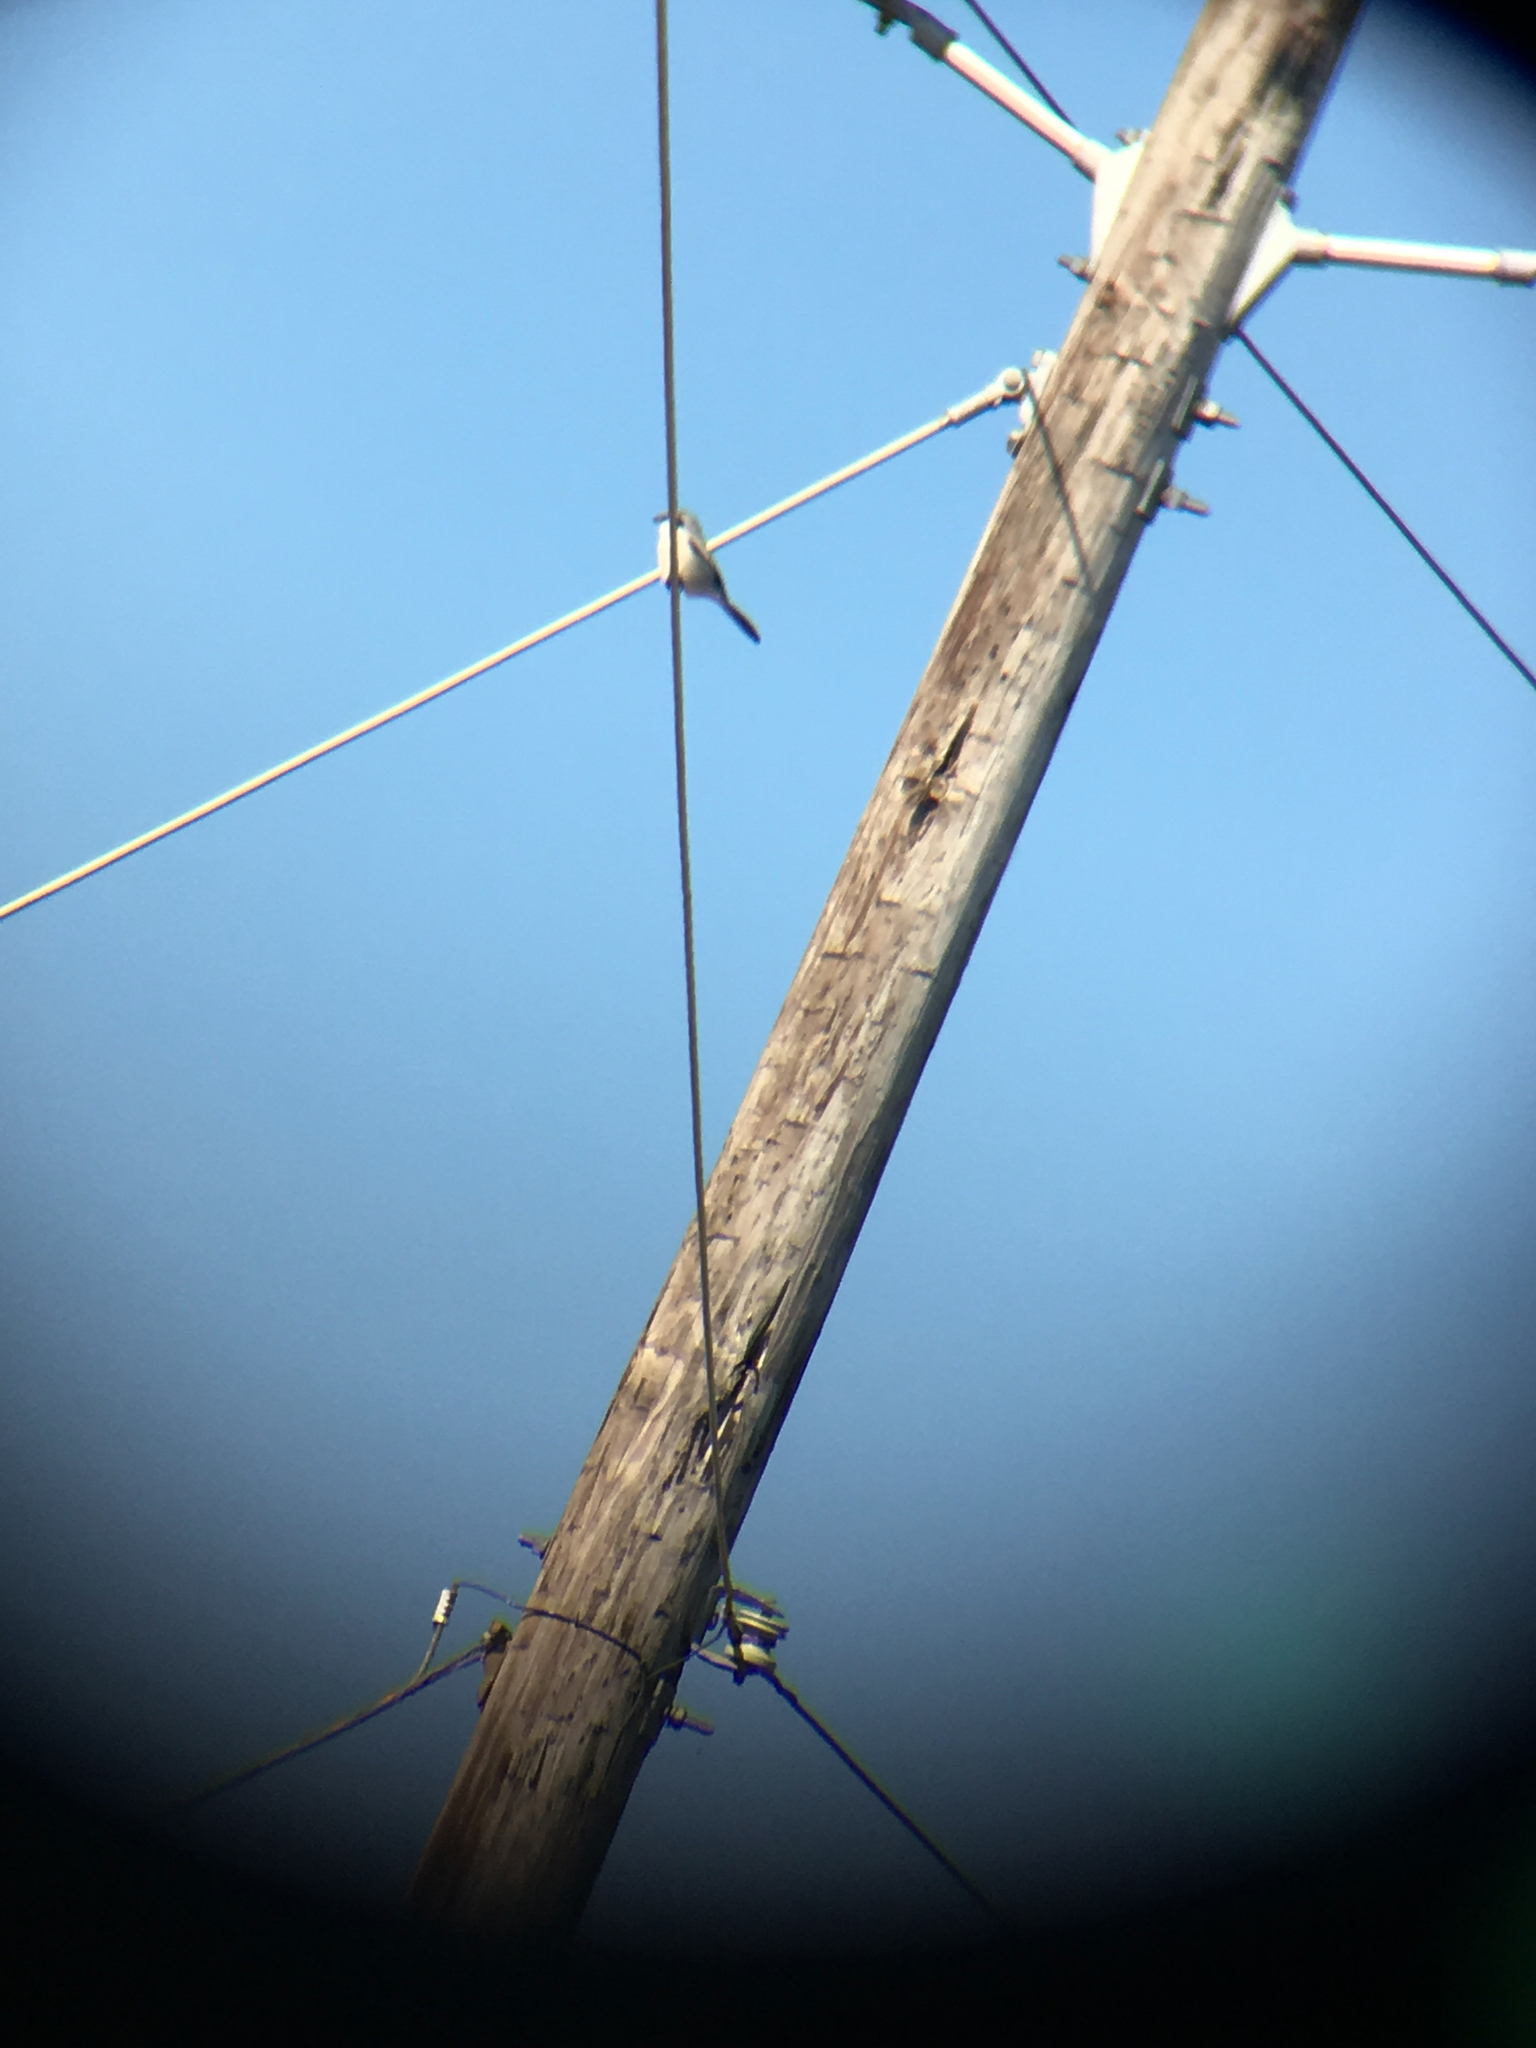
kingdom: Animalia
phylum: Chordata
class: Aves
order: Passeriformes
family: Laniidae
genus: Lanius
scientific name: Lanius ludovicianus
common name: Loggerhead shrike
